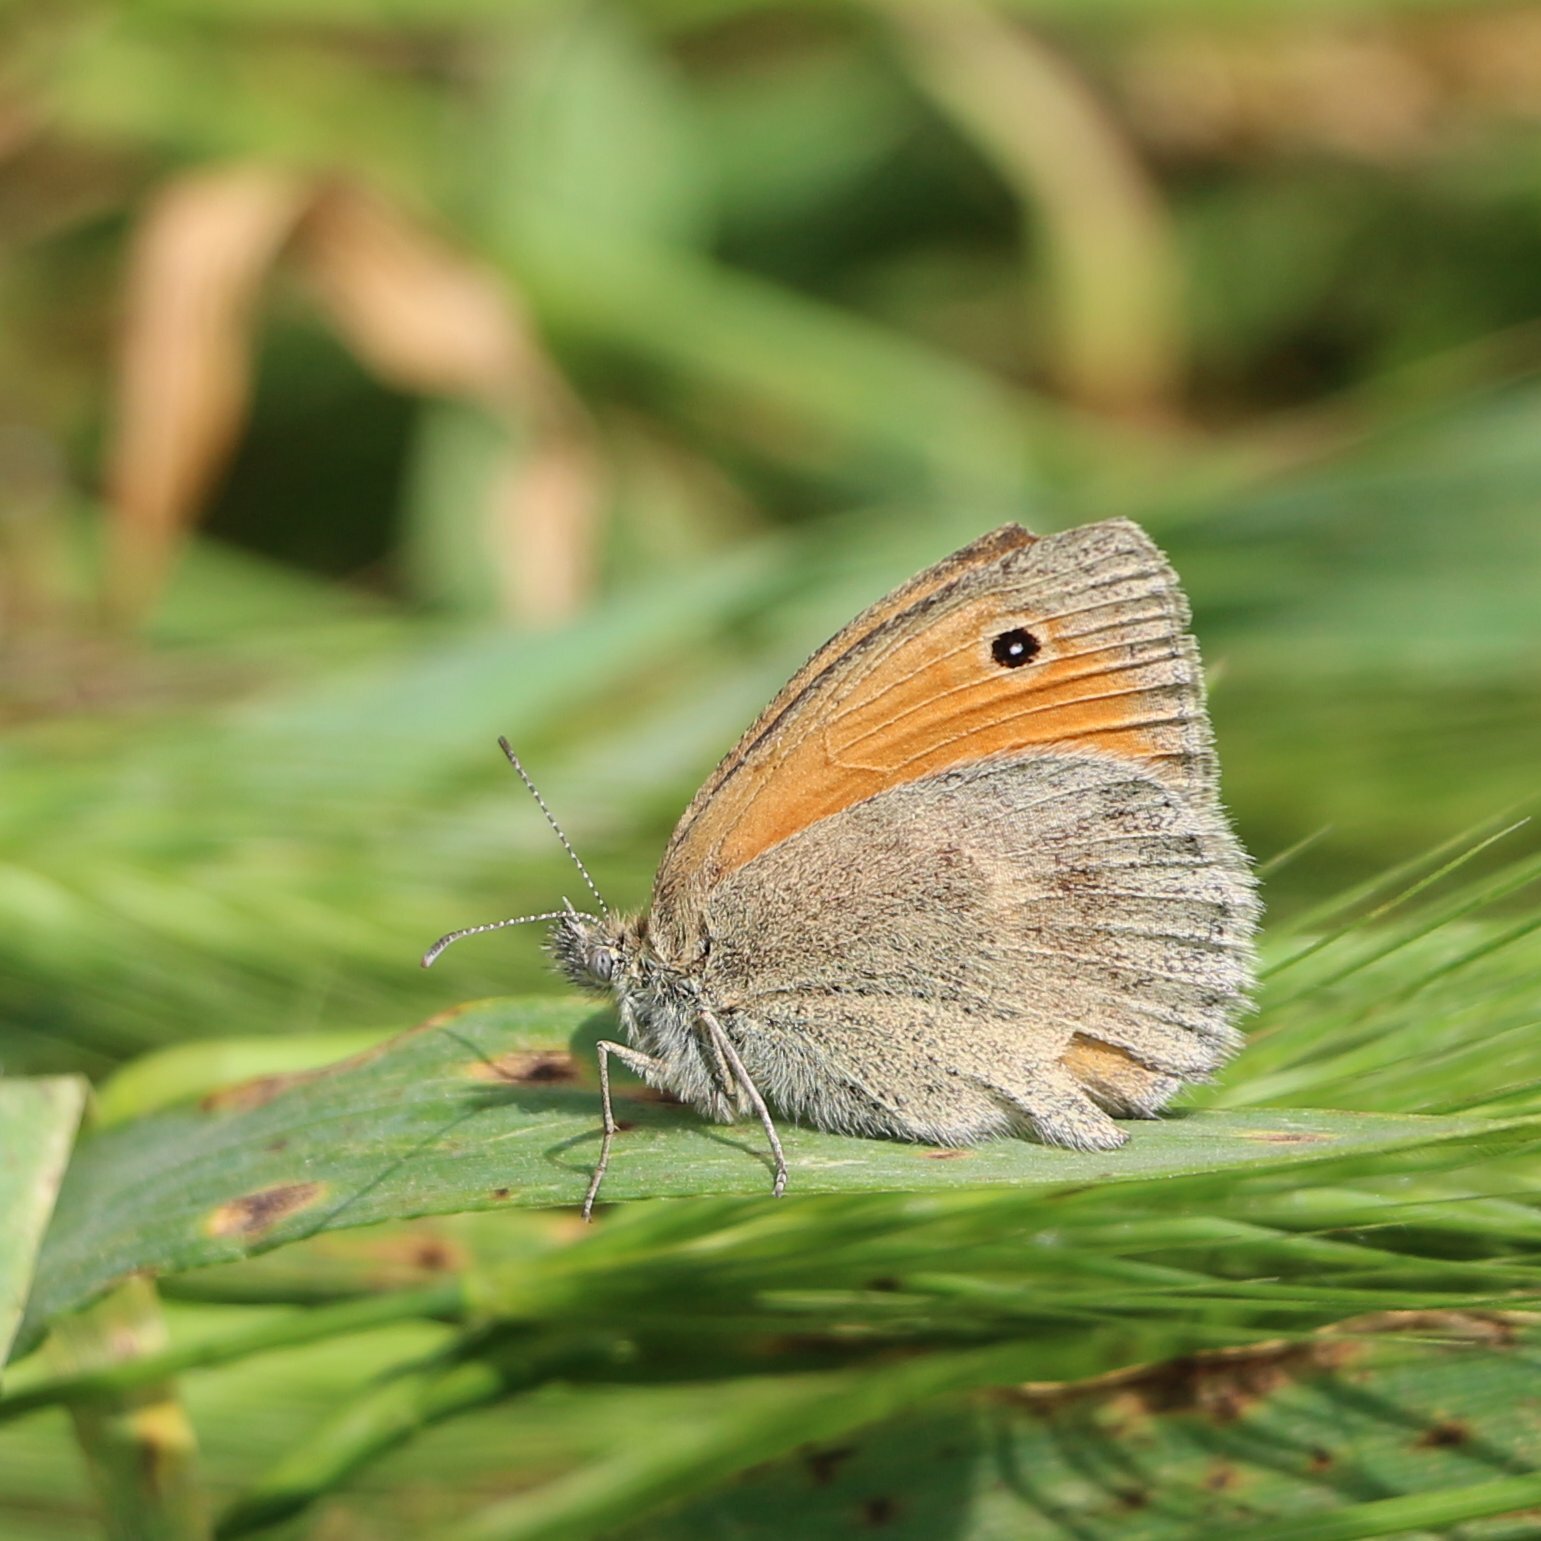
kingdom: Animalia
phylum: Arthropoda
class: Insecta
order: Lepidoptera
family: Nymphalidae
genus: Coenonympha
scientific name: Coenonympha pamphilus
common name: Small heath
